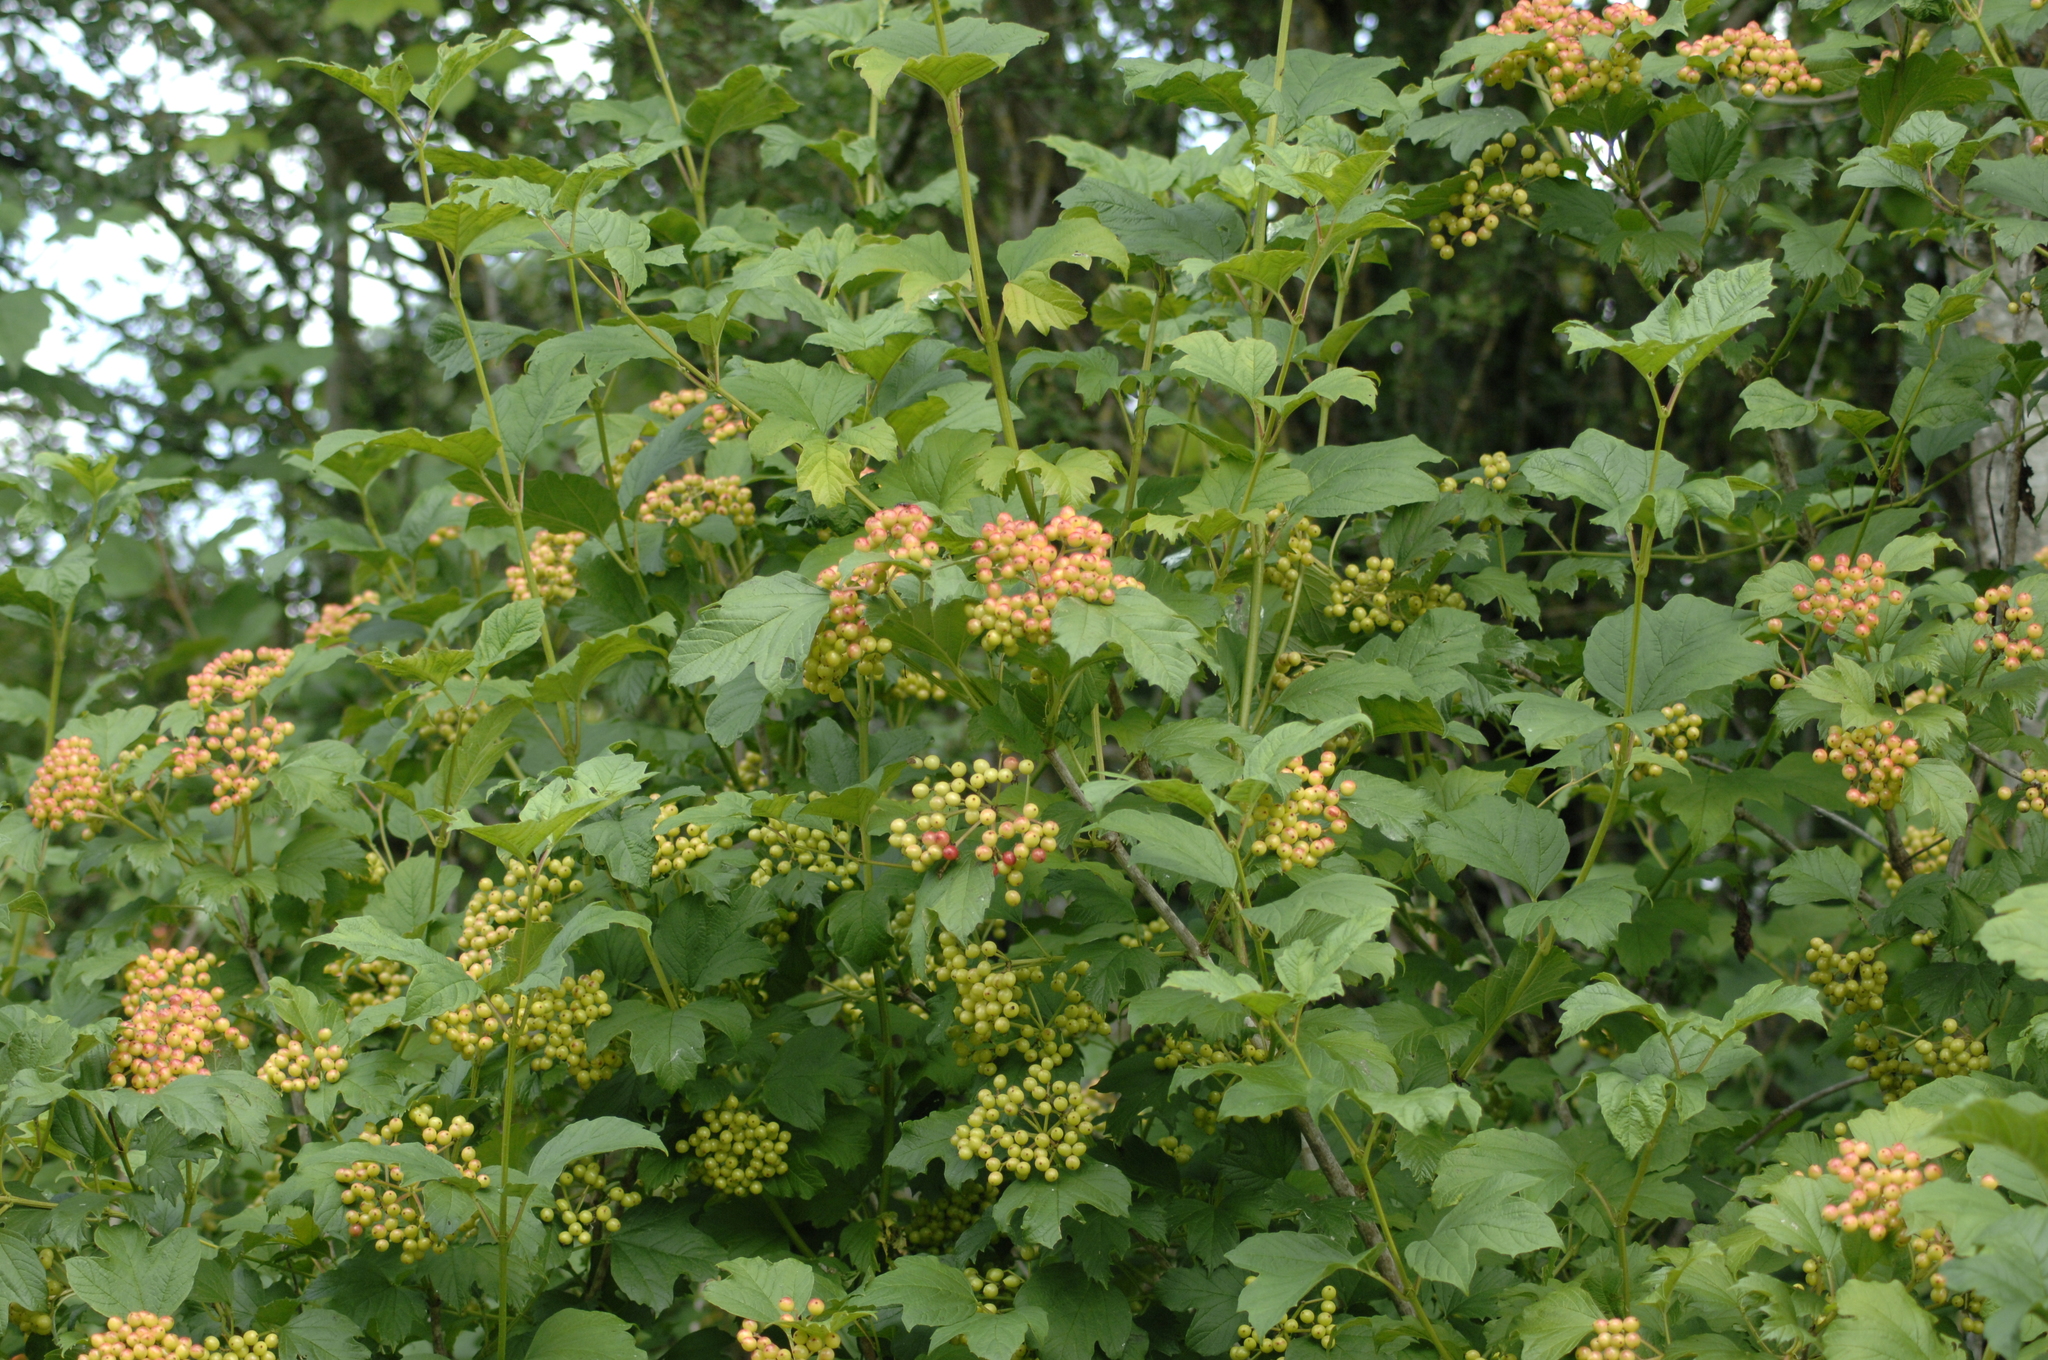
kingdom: Plantae
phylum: Tracheophyta
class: Magnoliopsida
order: Dipsacales
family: Viburnaceae
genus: Viburnum
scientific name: Viburnum opulus
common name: Guelder-rose
